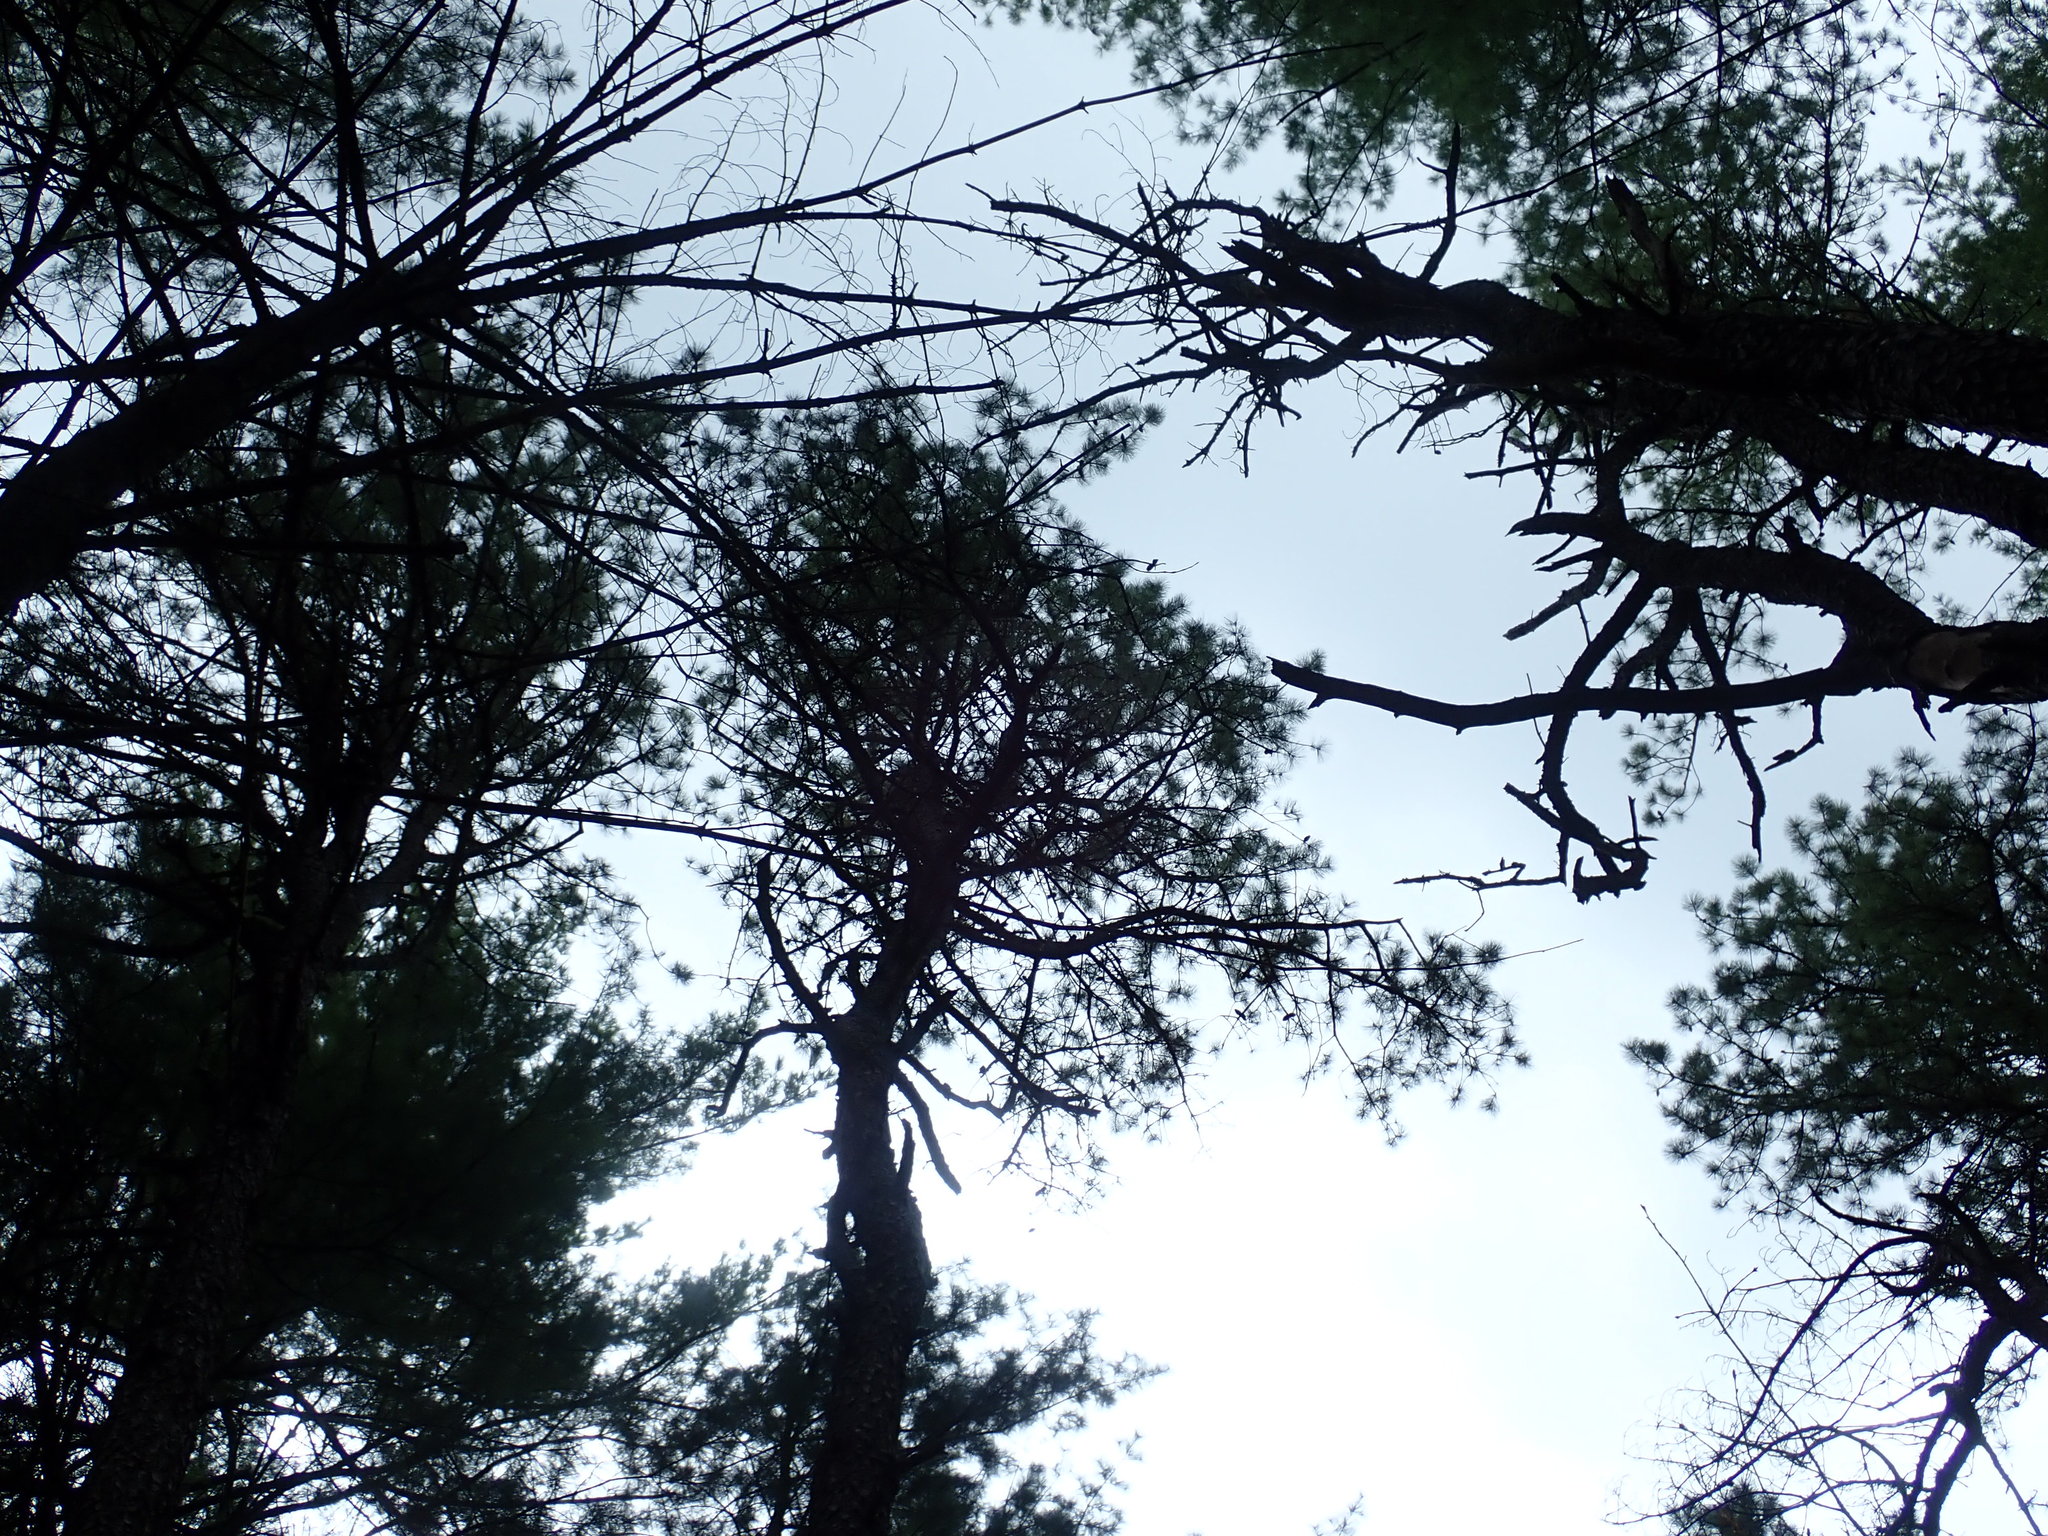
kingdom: Plantae
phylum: Tracheophyta
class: Pinopsida
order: Pinales
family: Pinaceae
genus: Pinus
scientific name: Pinus rigida
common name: Pitch pine
